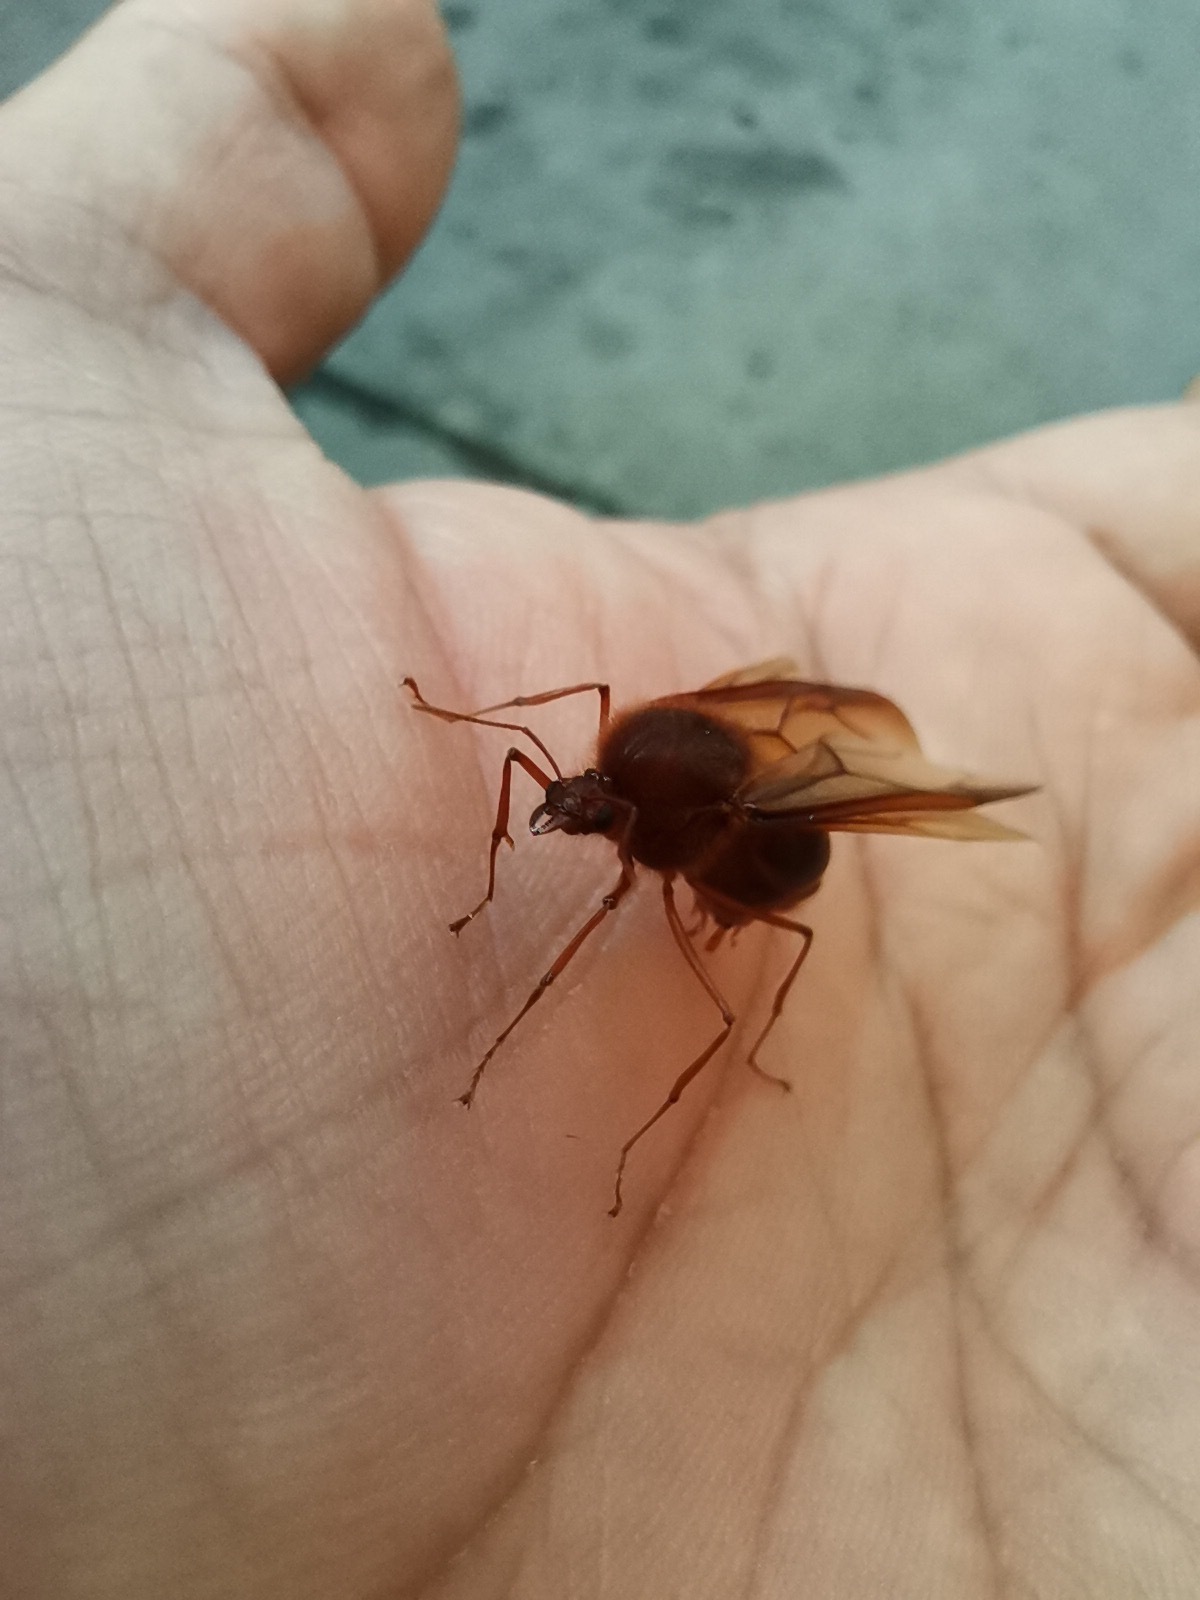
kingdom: Animalia
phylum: Arthropoda
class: Insecta
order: Hymenoptera
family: Formicidae
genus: Atta
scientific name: Atta mexicana
